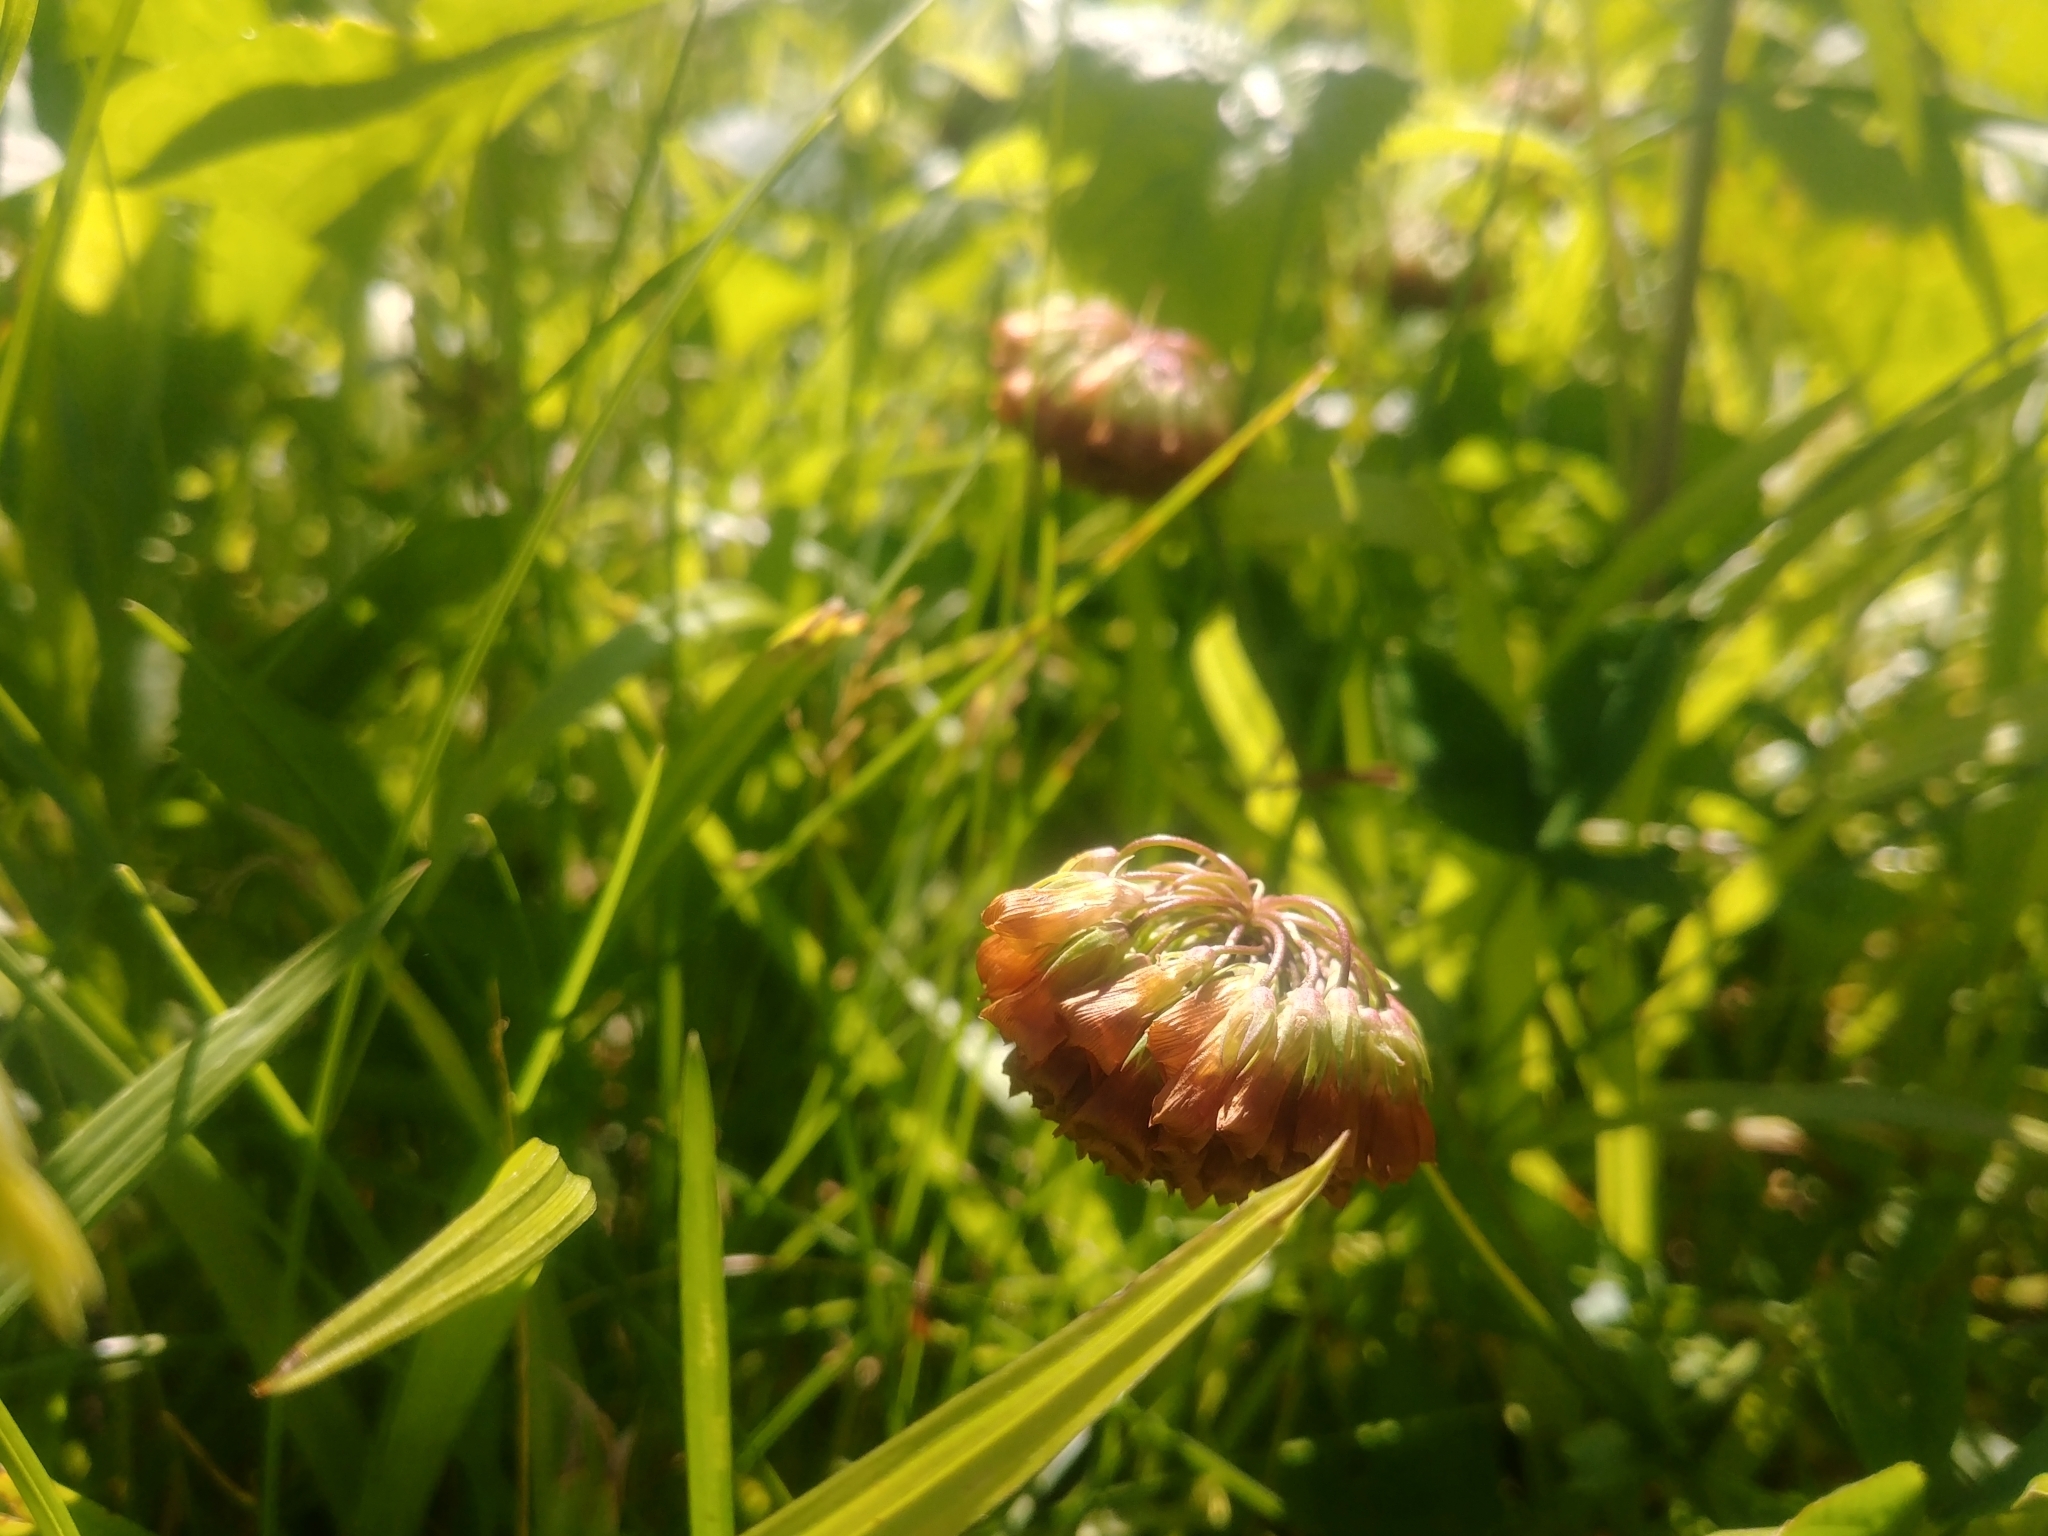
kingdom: Plantae
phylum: Tracheophyta
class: Magnoliopsida
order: Fabales
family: Fabaceae
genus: Trifolium
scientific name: Trifolium reflexum
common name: Buffalo clover
